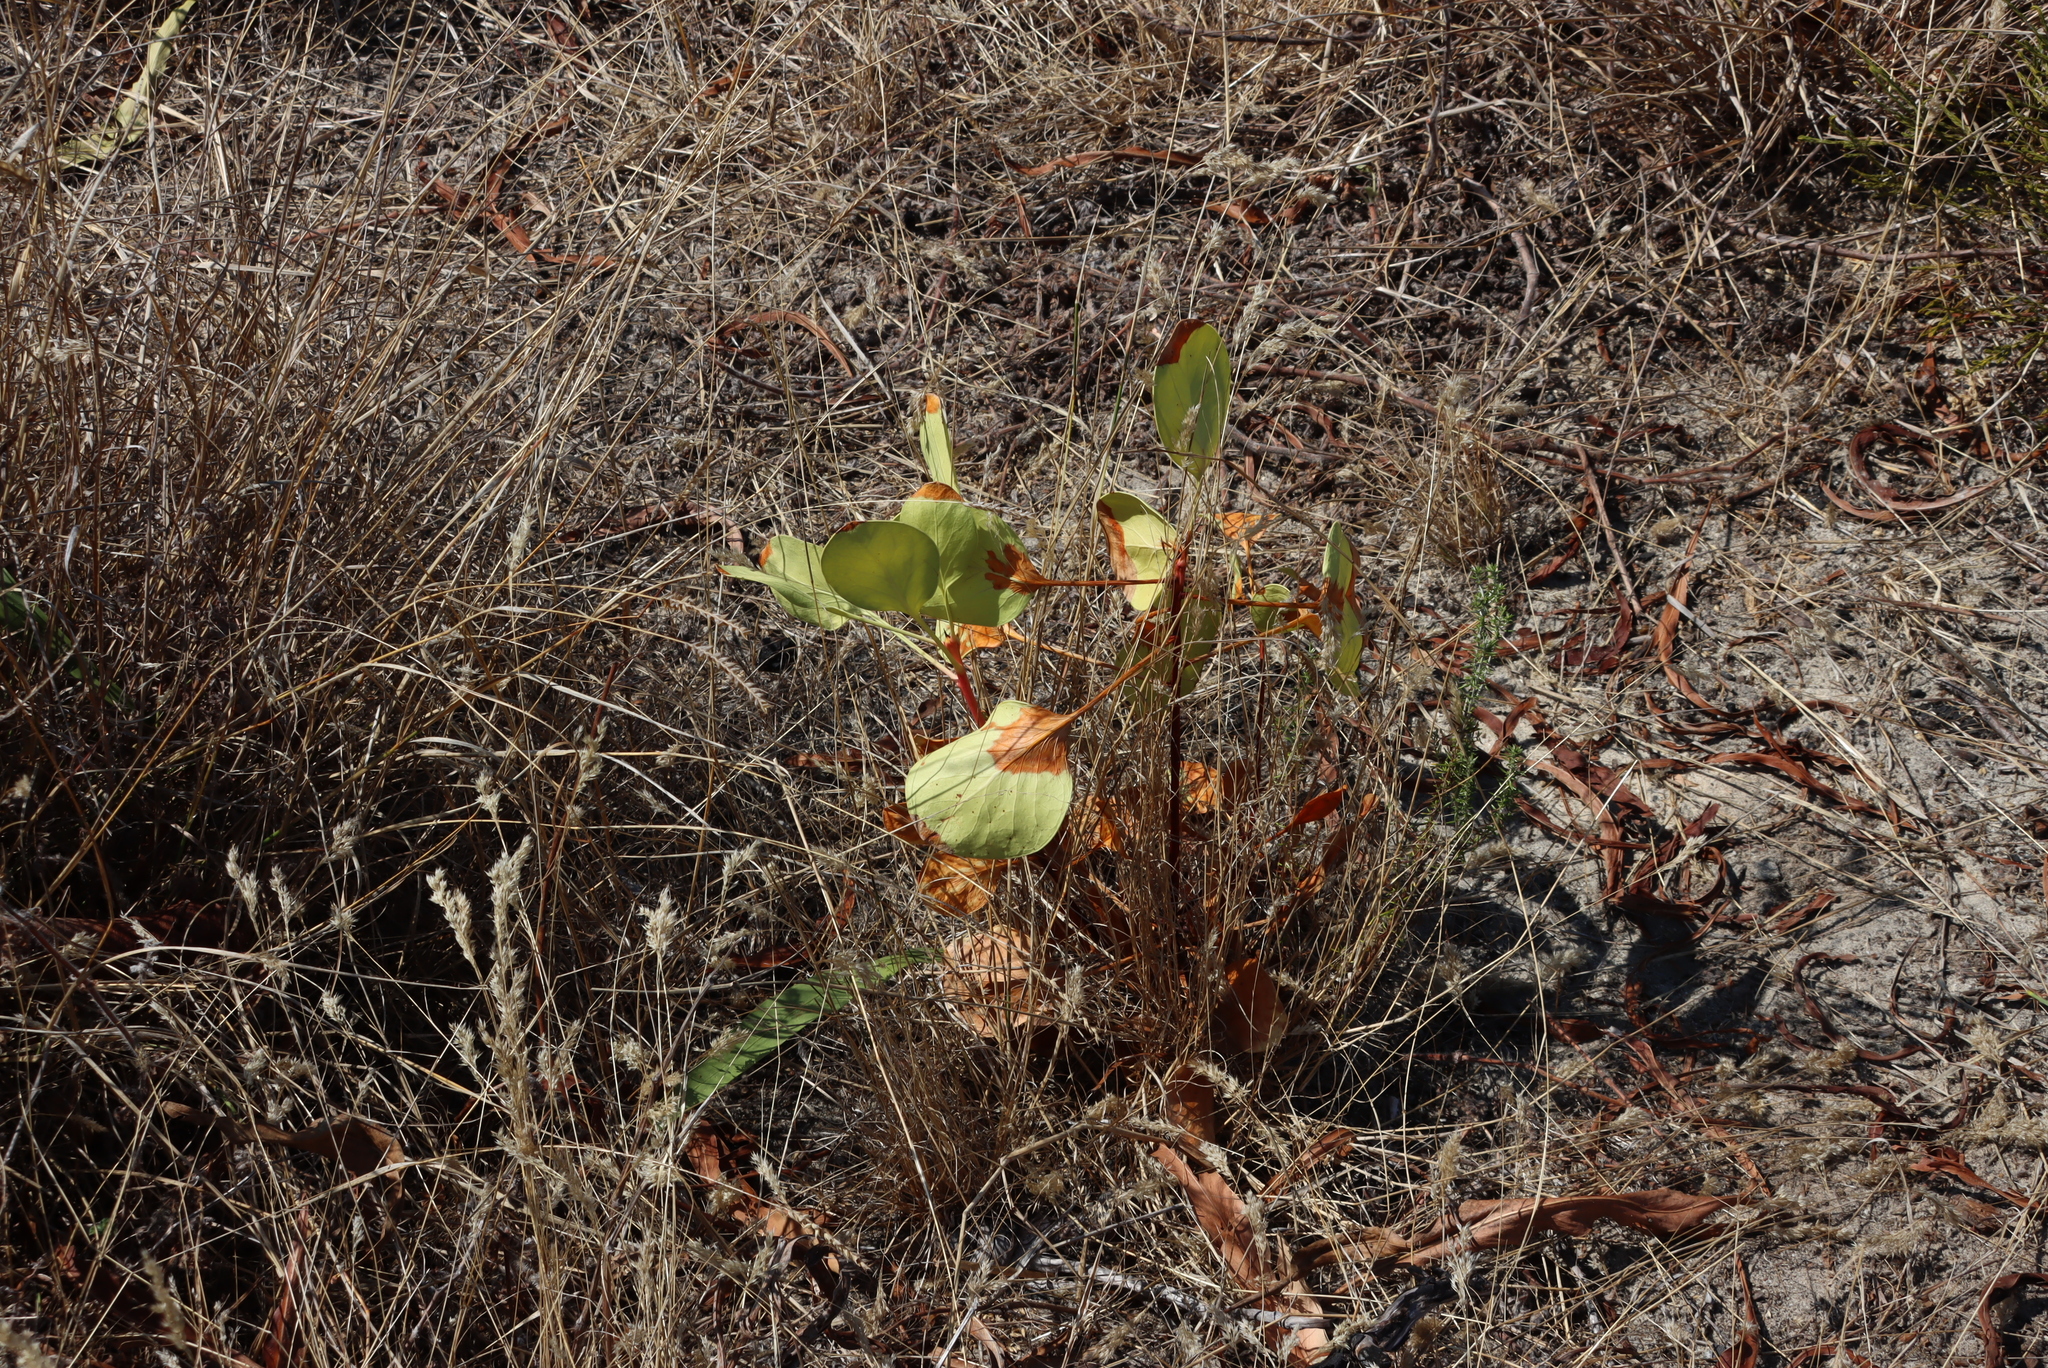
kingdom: Plantae
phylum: Tracheophyta
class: Magnoliopsida
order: Proteales
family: Proteaceae
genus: Protea
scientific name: Protea cynaroides
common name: King protea
